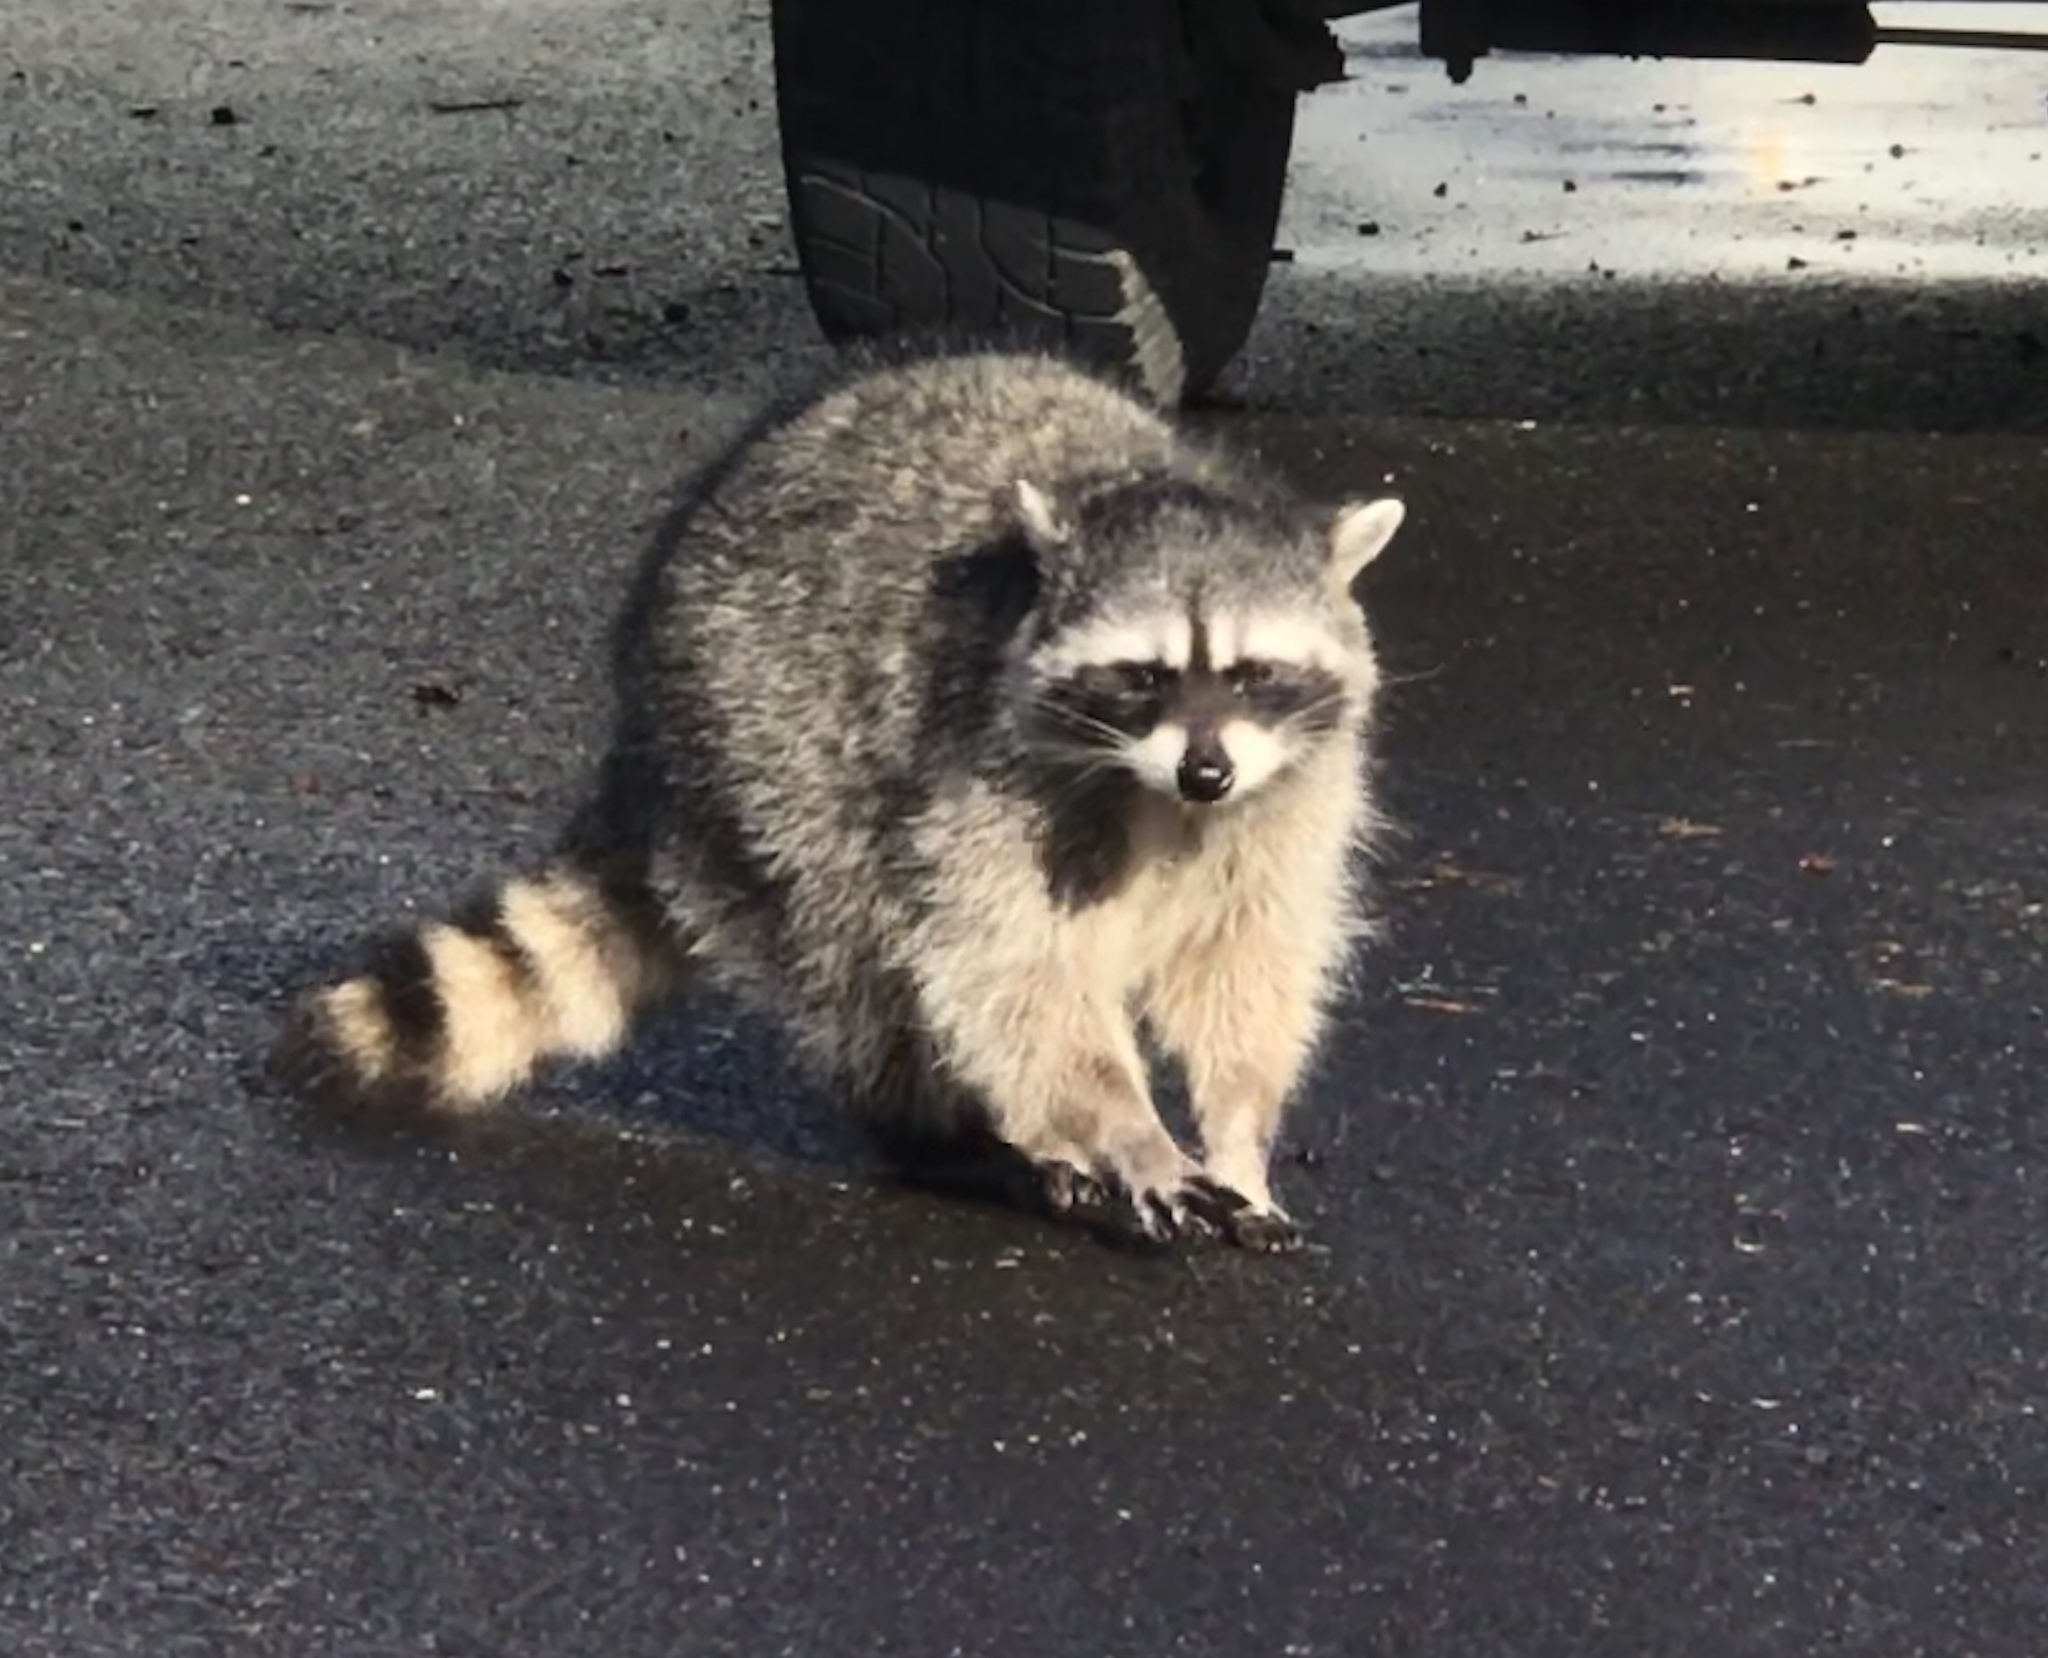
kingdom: Animalia
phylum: Chordata
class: Mammalia
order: Carnivora
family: Procyonidae
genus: Procyon
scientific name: Procyon lotor
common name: Raccoon
